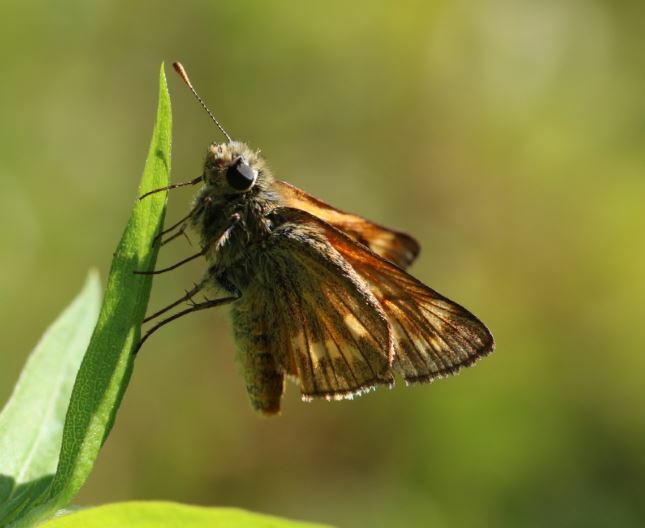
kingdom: Animalia
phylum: Arthropoda
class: Insecta
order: Lepidoptera
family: Hesperiidae
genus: Ochlodes
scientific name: Ochlodes venata
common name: Large skipper
